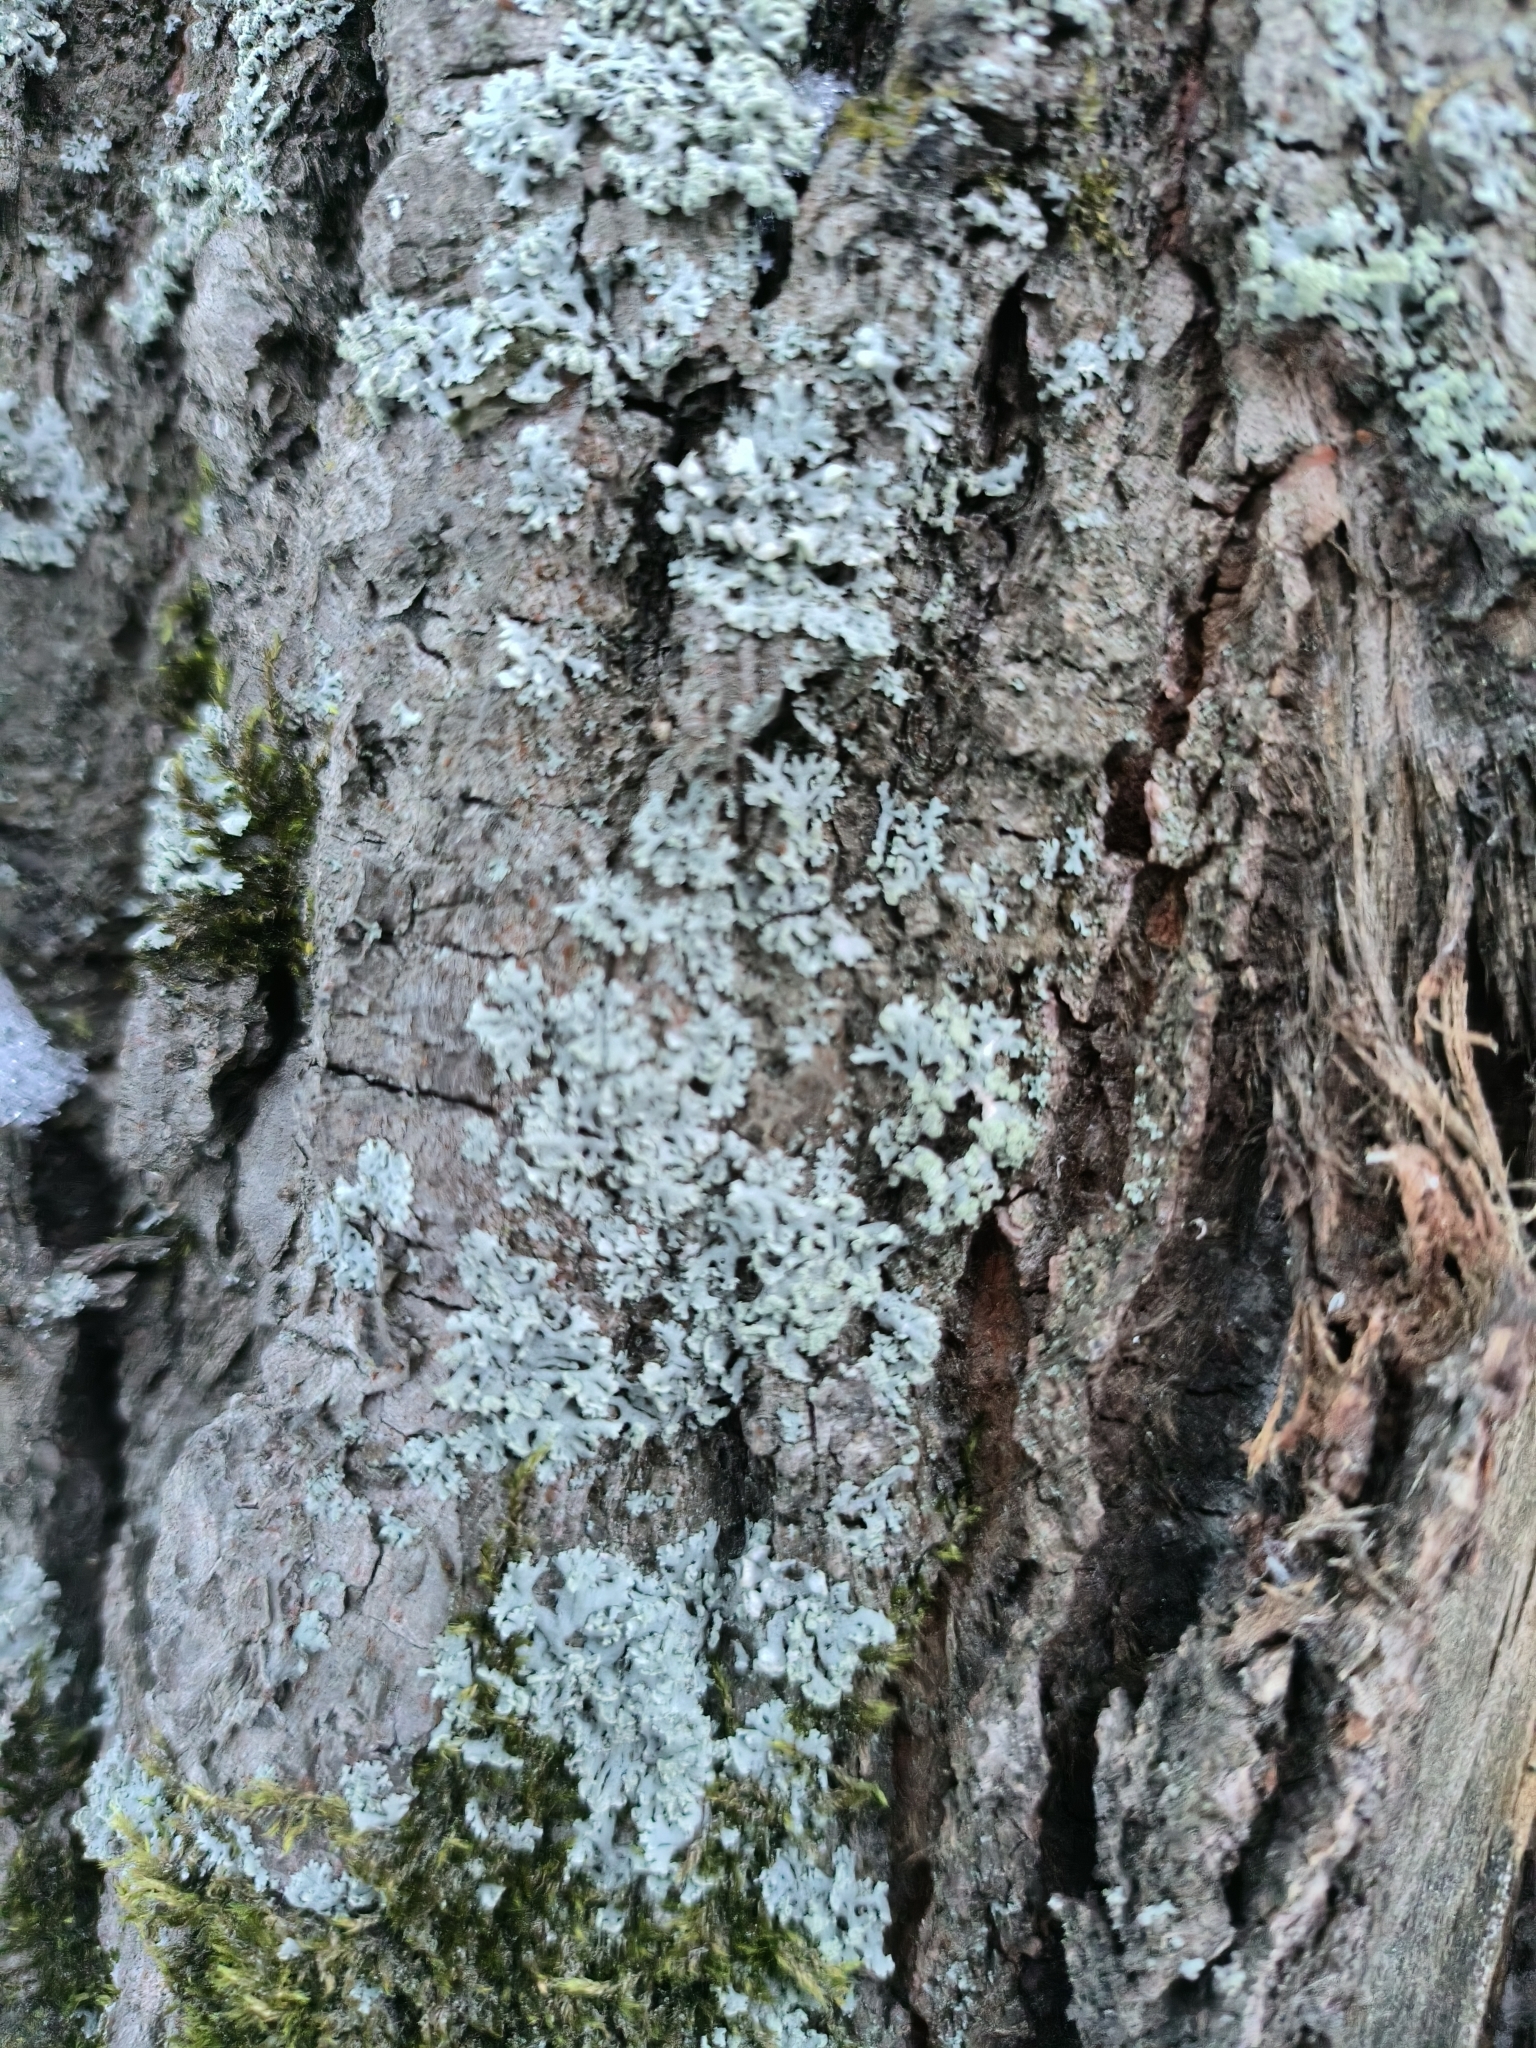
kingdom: Fungi
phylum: Ascomycota
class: Lecanoromycetes
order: Lecanorales
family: Parmeliaceae
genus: Hypogymnia
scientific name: Hypogymnia physodes
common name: Dark crottle
